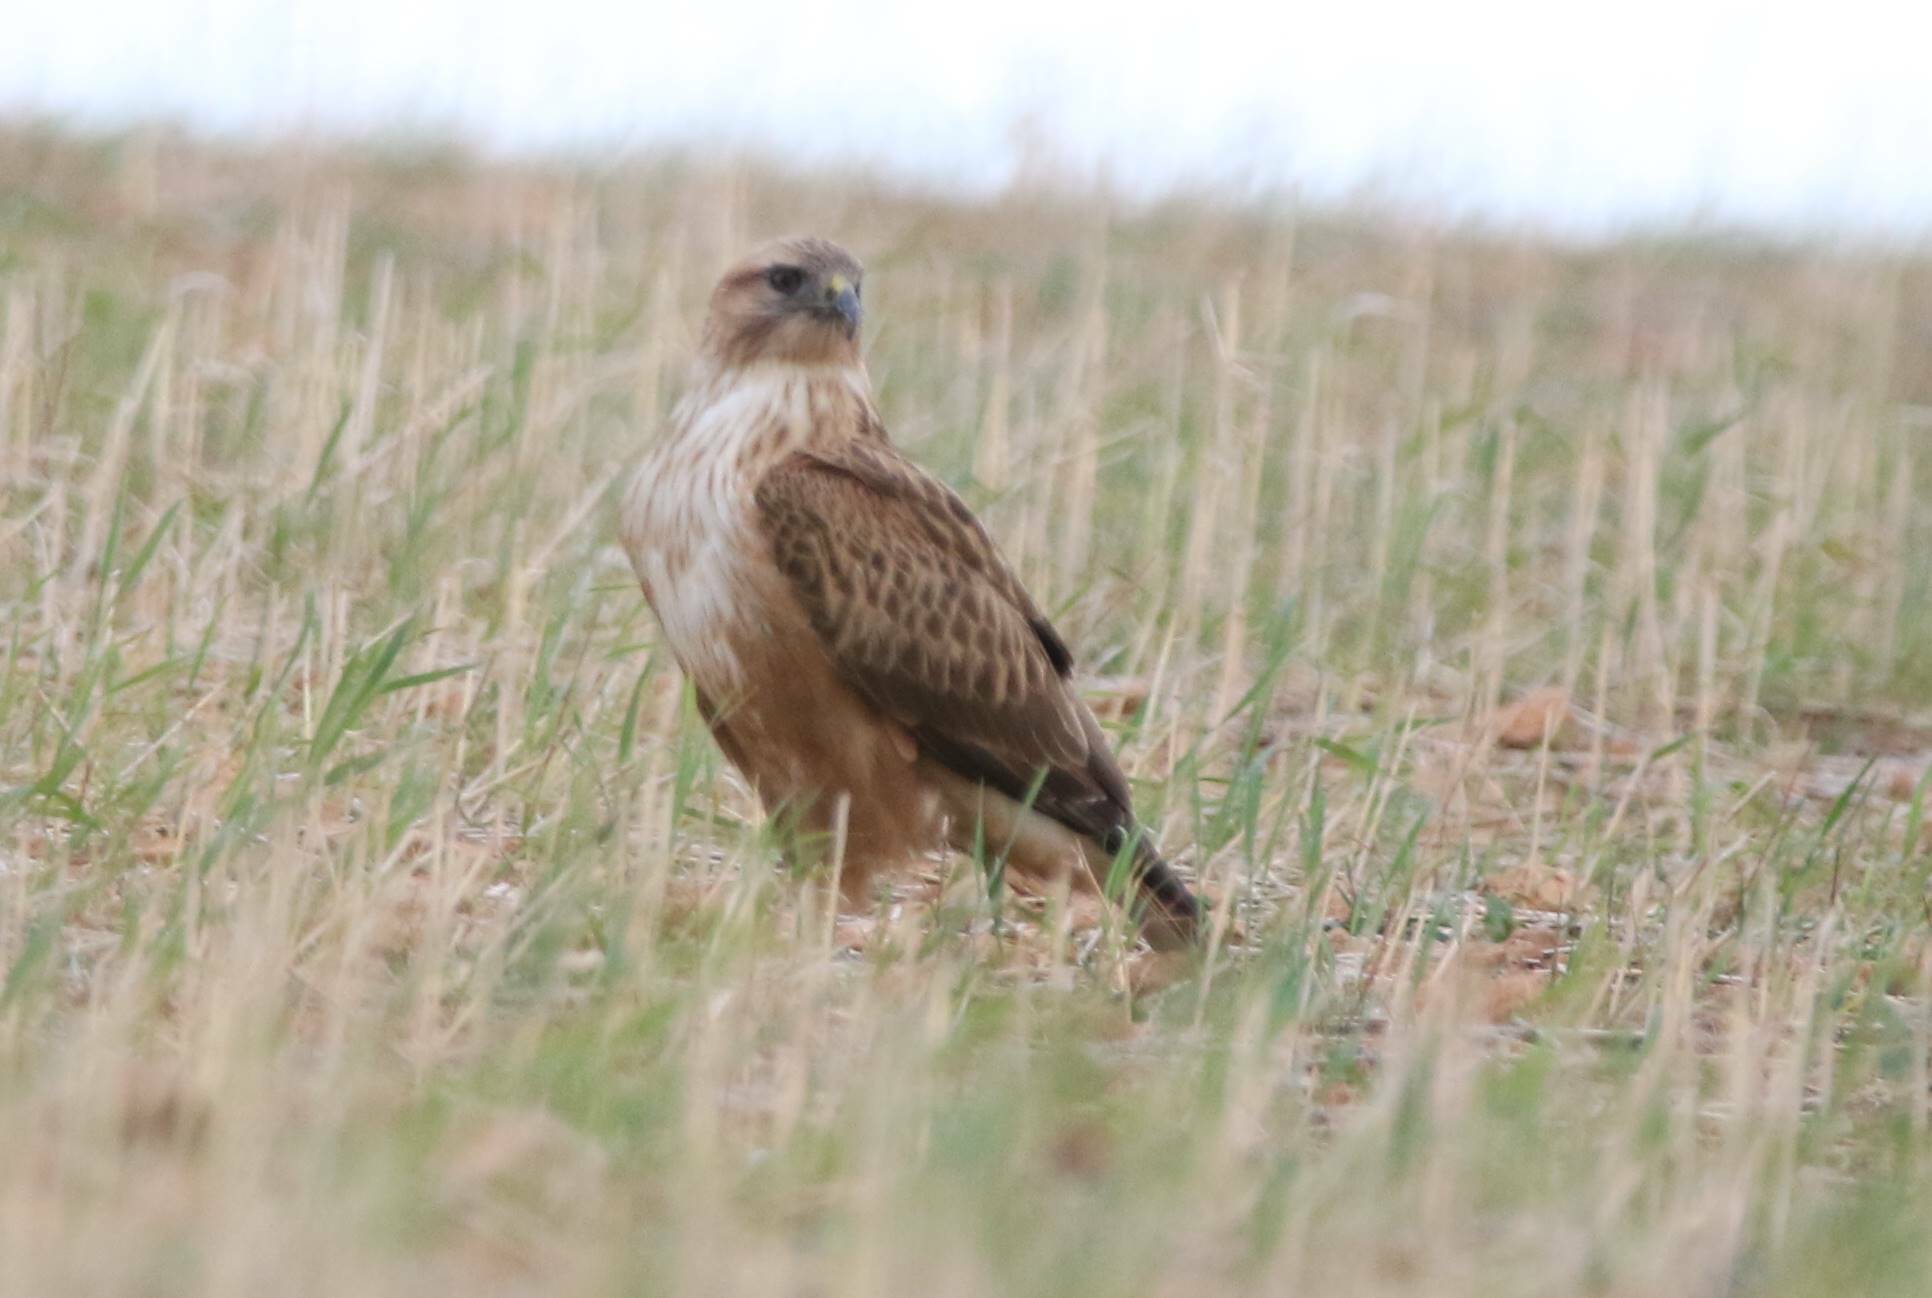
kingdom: Animalia
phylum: Chordata
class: Aves
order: Accipitriformes
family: Accipitridae
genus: Buteo
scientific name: Buteo rufinus
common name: Long-legged buzzard
